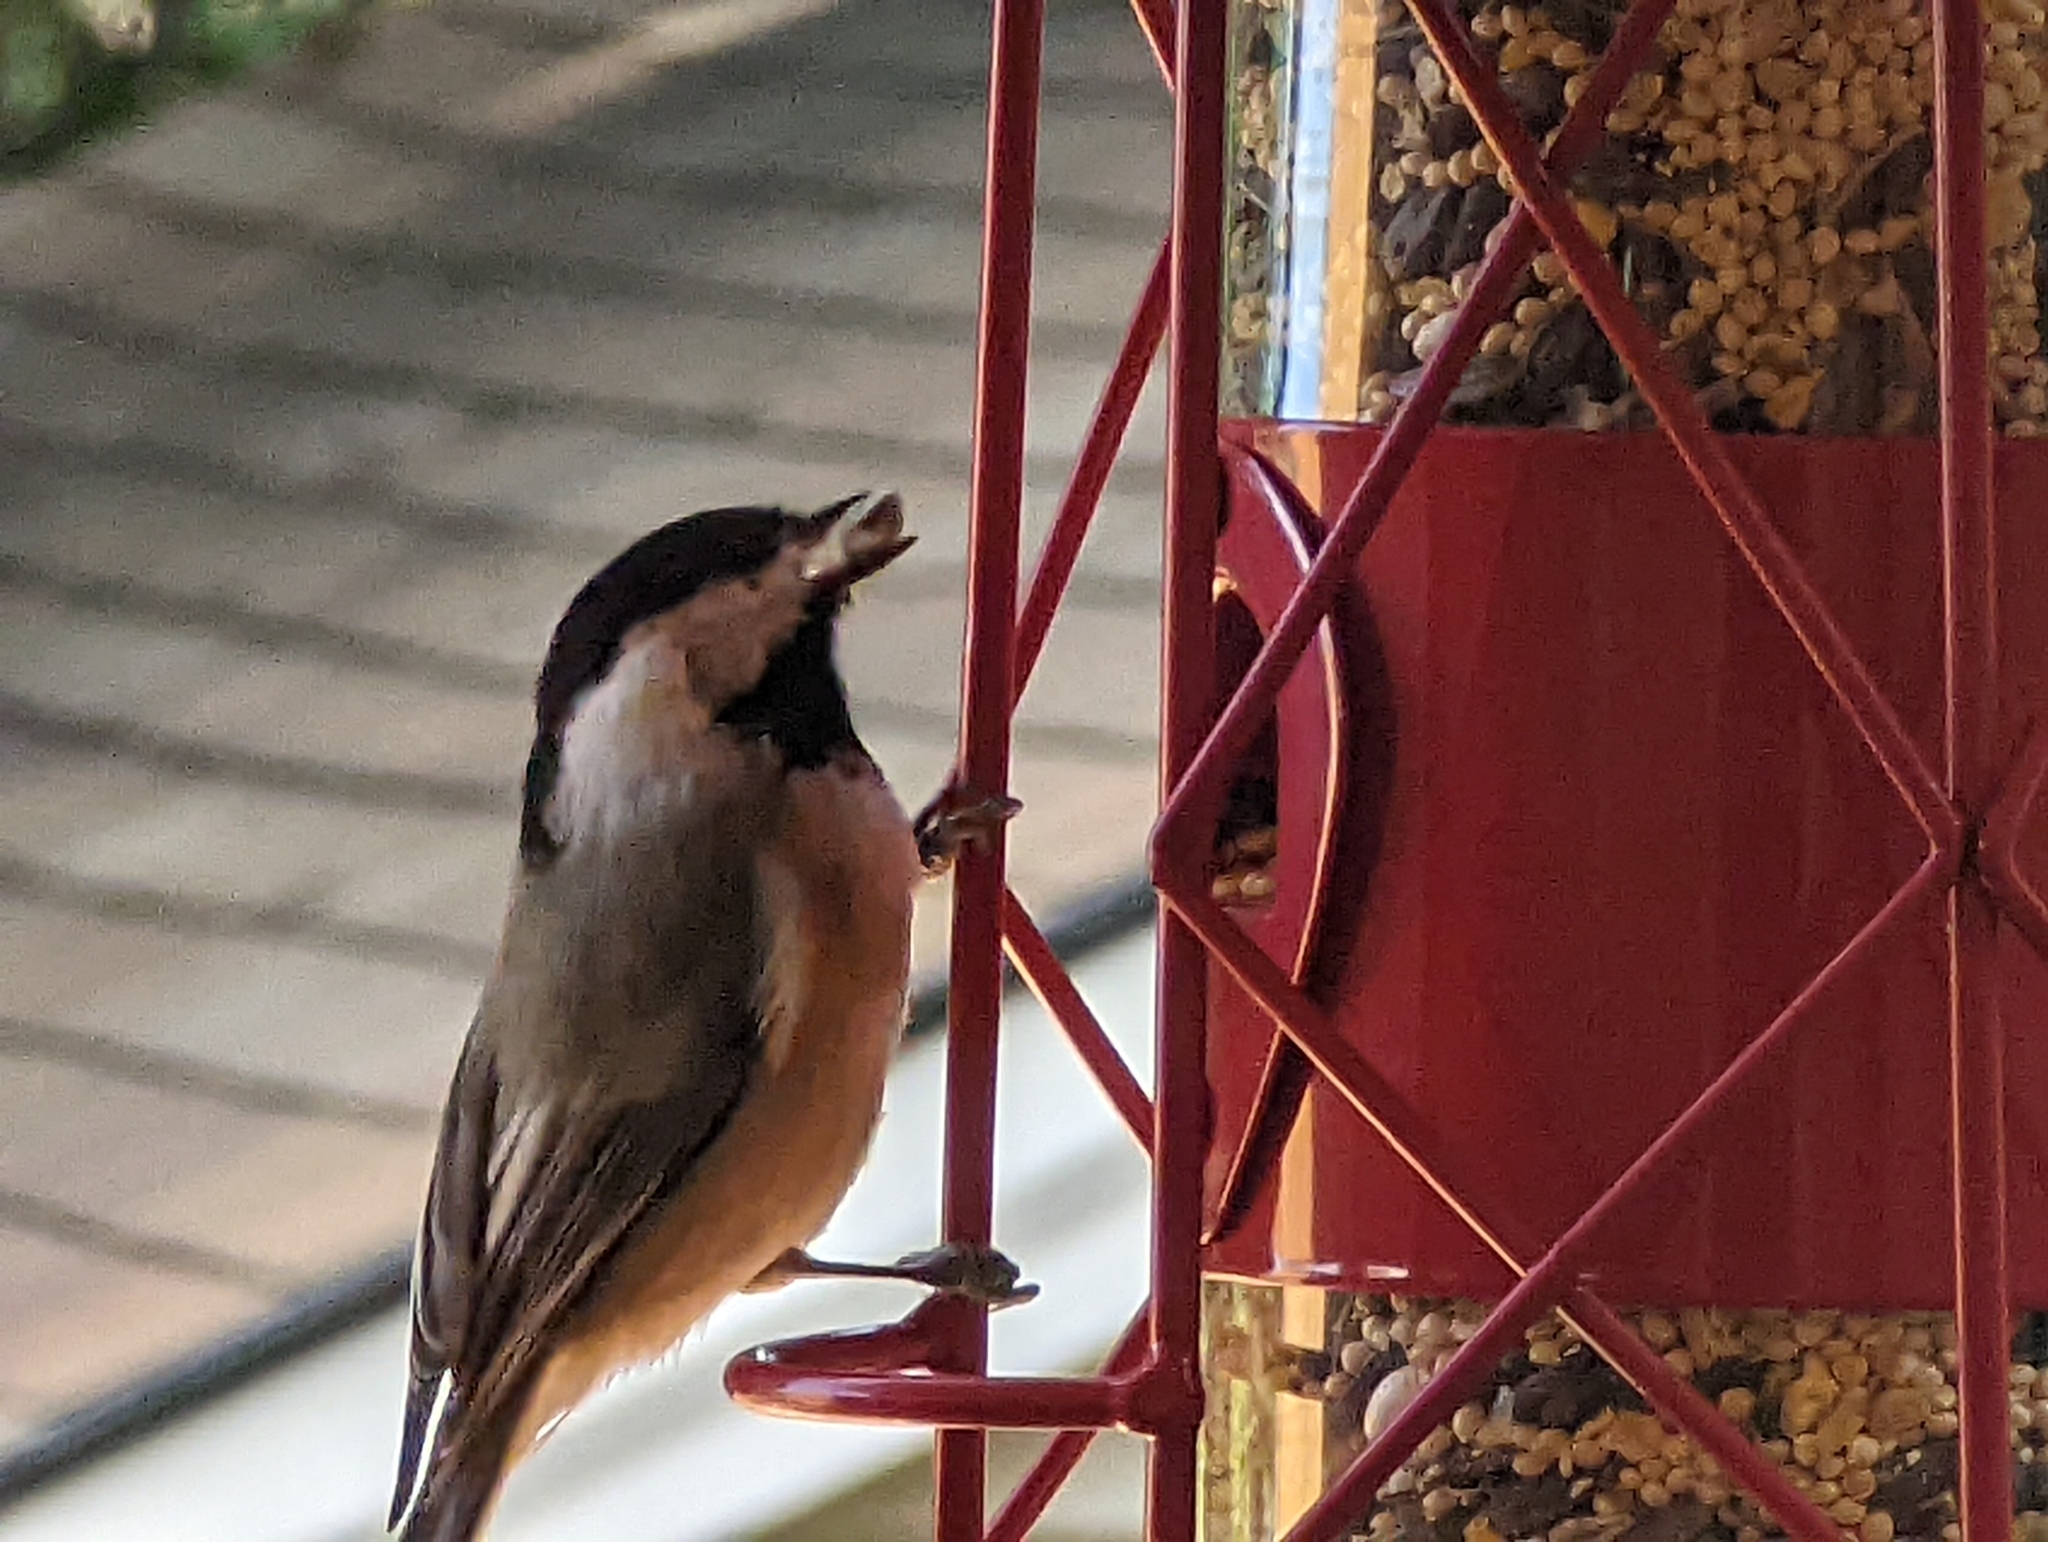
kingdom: Animalia
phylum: Chordata
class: Aves
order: Passeriformes
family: Paridae
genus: Poecile
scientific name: Poecile carolinensis
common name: Carolina chickadee
